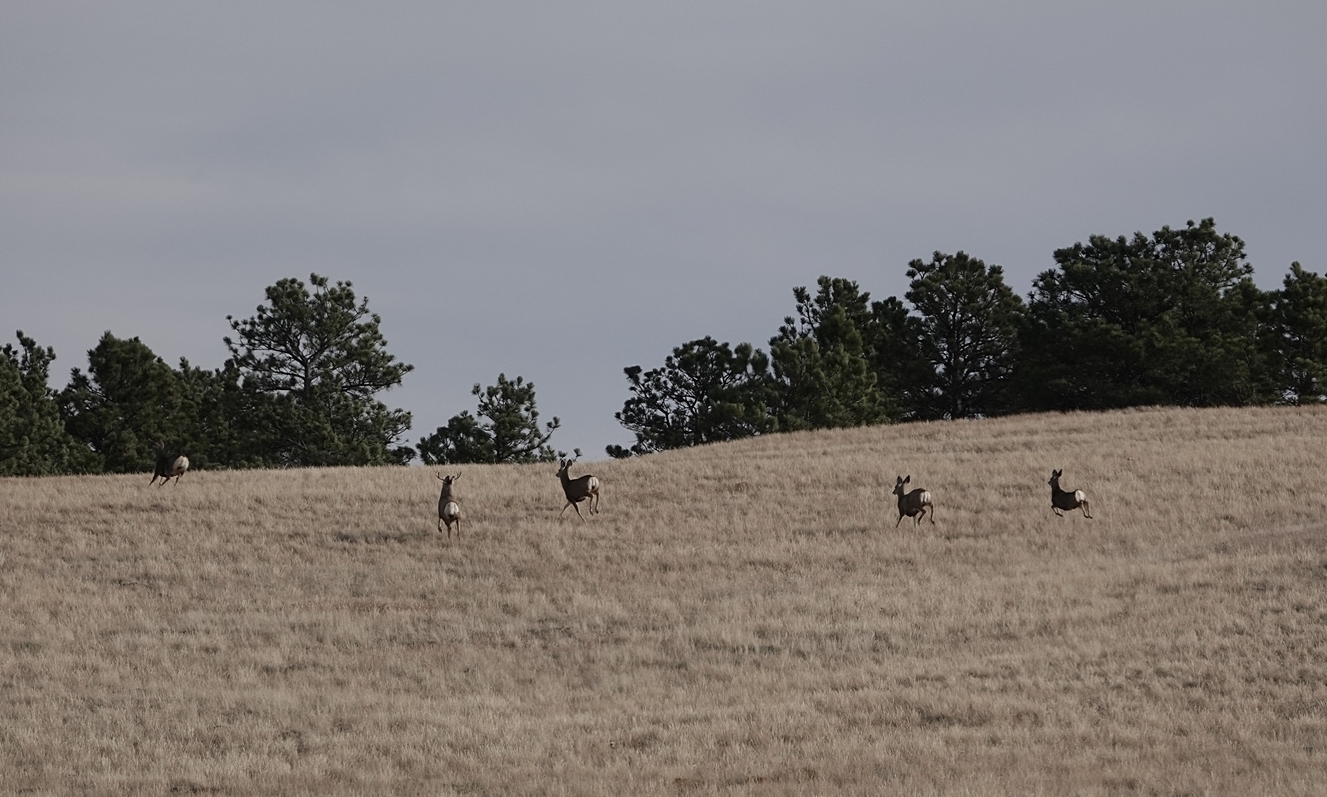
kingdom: Animalia
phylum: Chordata
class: Mammalia
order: Artiodactyla
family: Cervidae
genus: Odocoileus
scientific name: Odocoileus hemionus
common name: Mule deer
